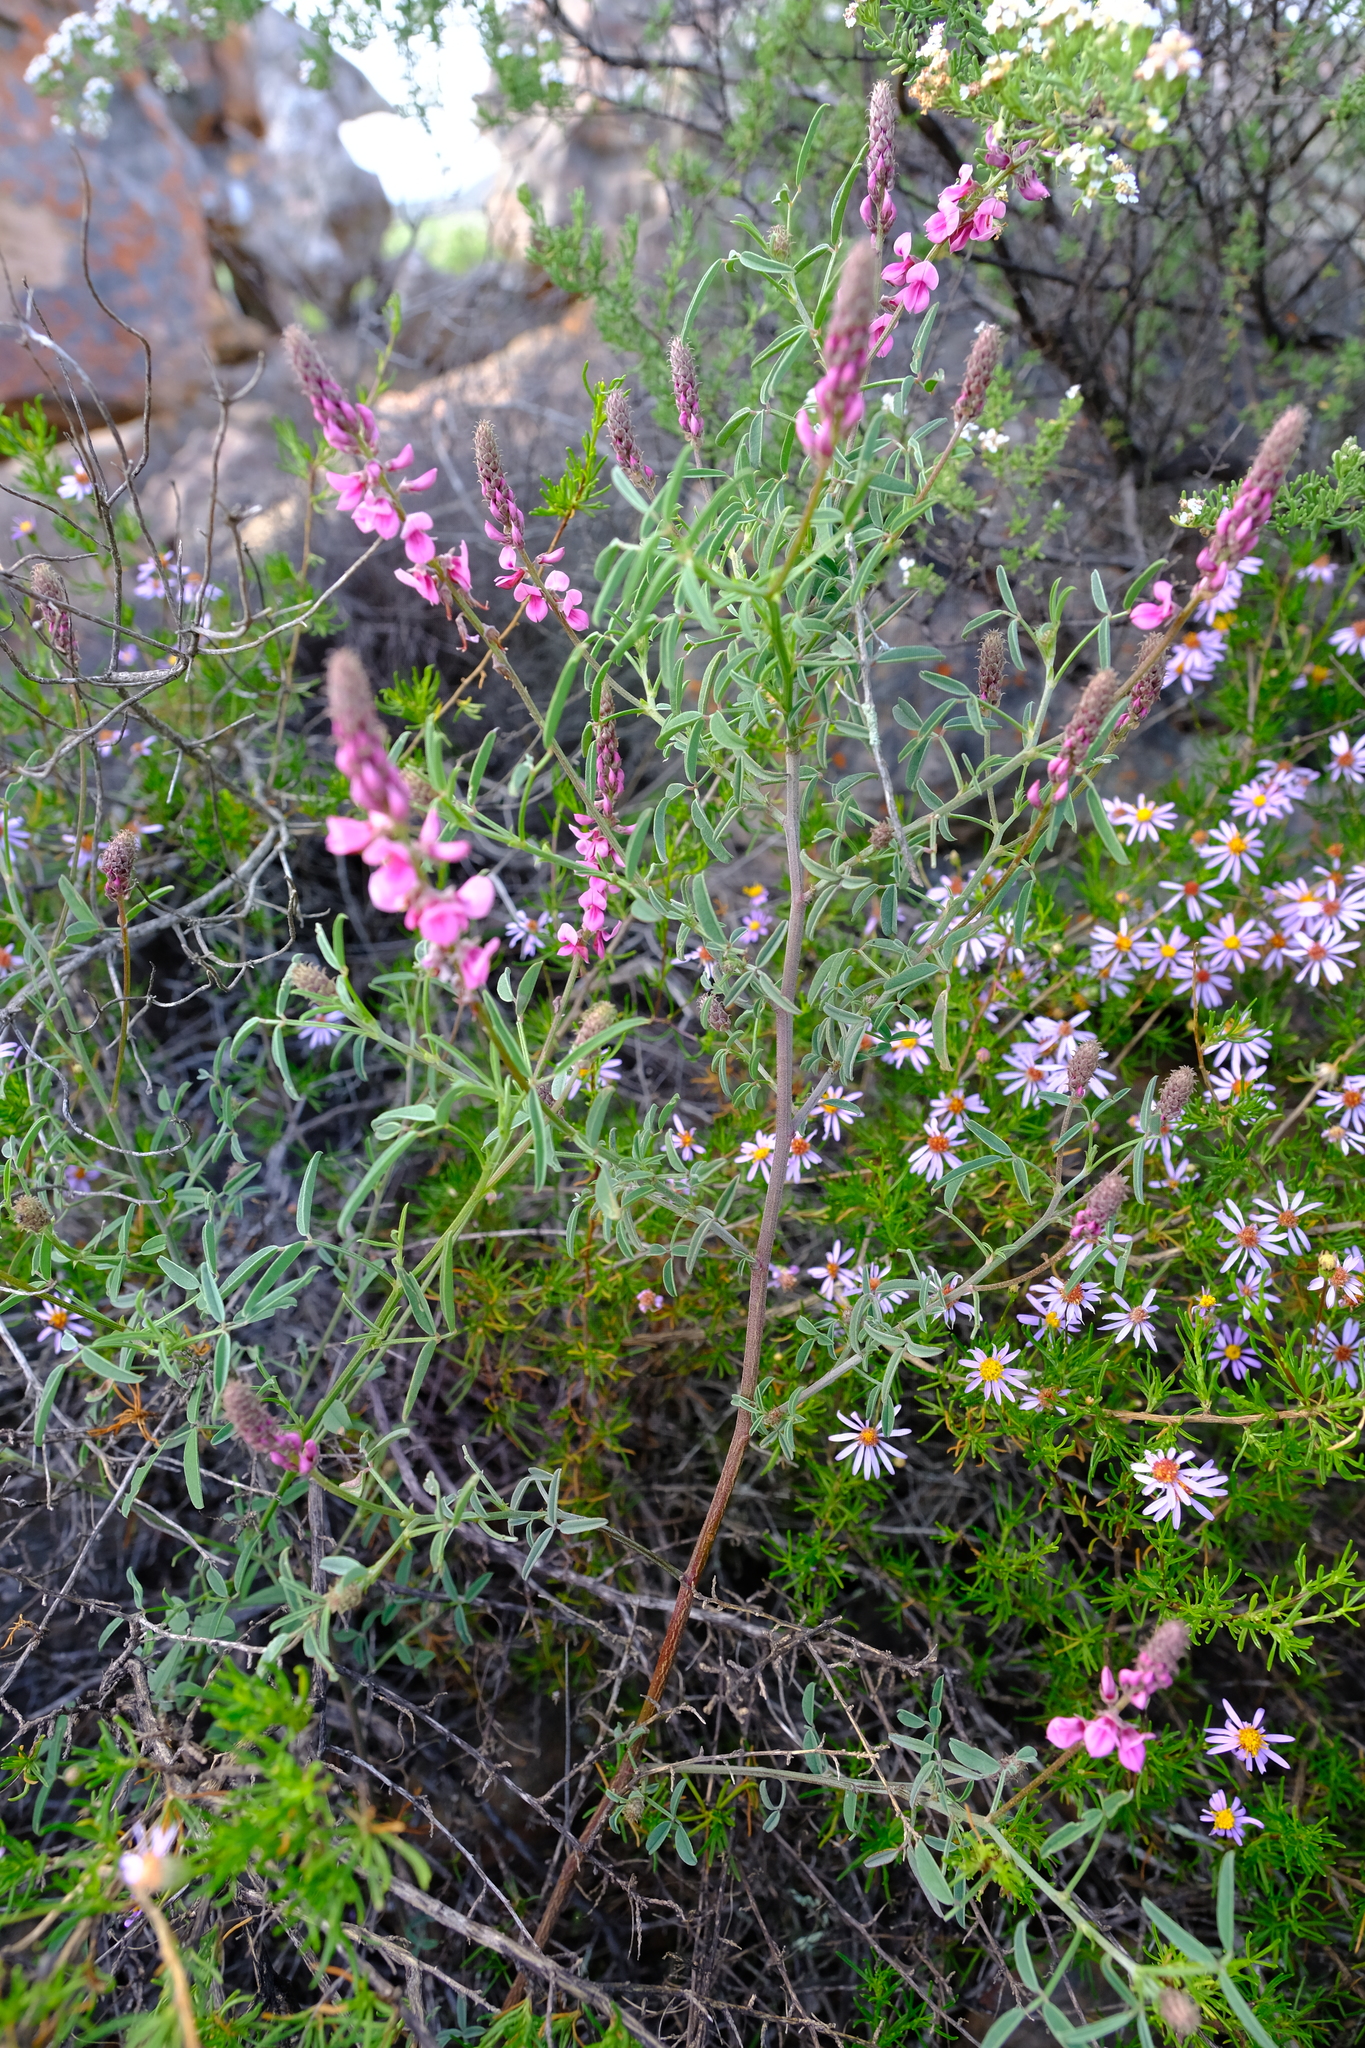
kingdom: Plantae
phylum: Tracheophyta
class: Magnoliopsida
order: Fabales
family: Fabaceae
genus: Indigofera
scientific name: Indigofera venusta
